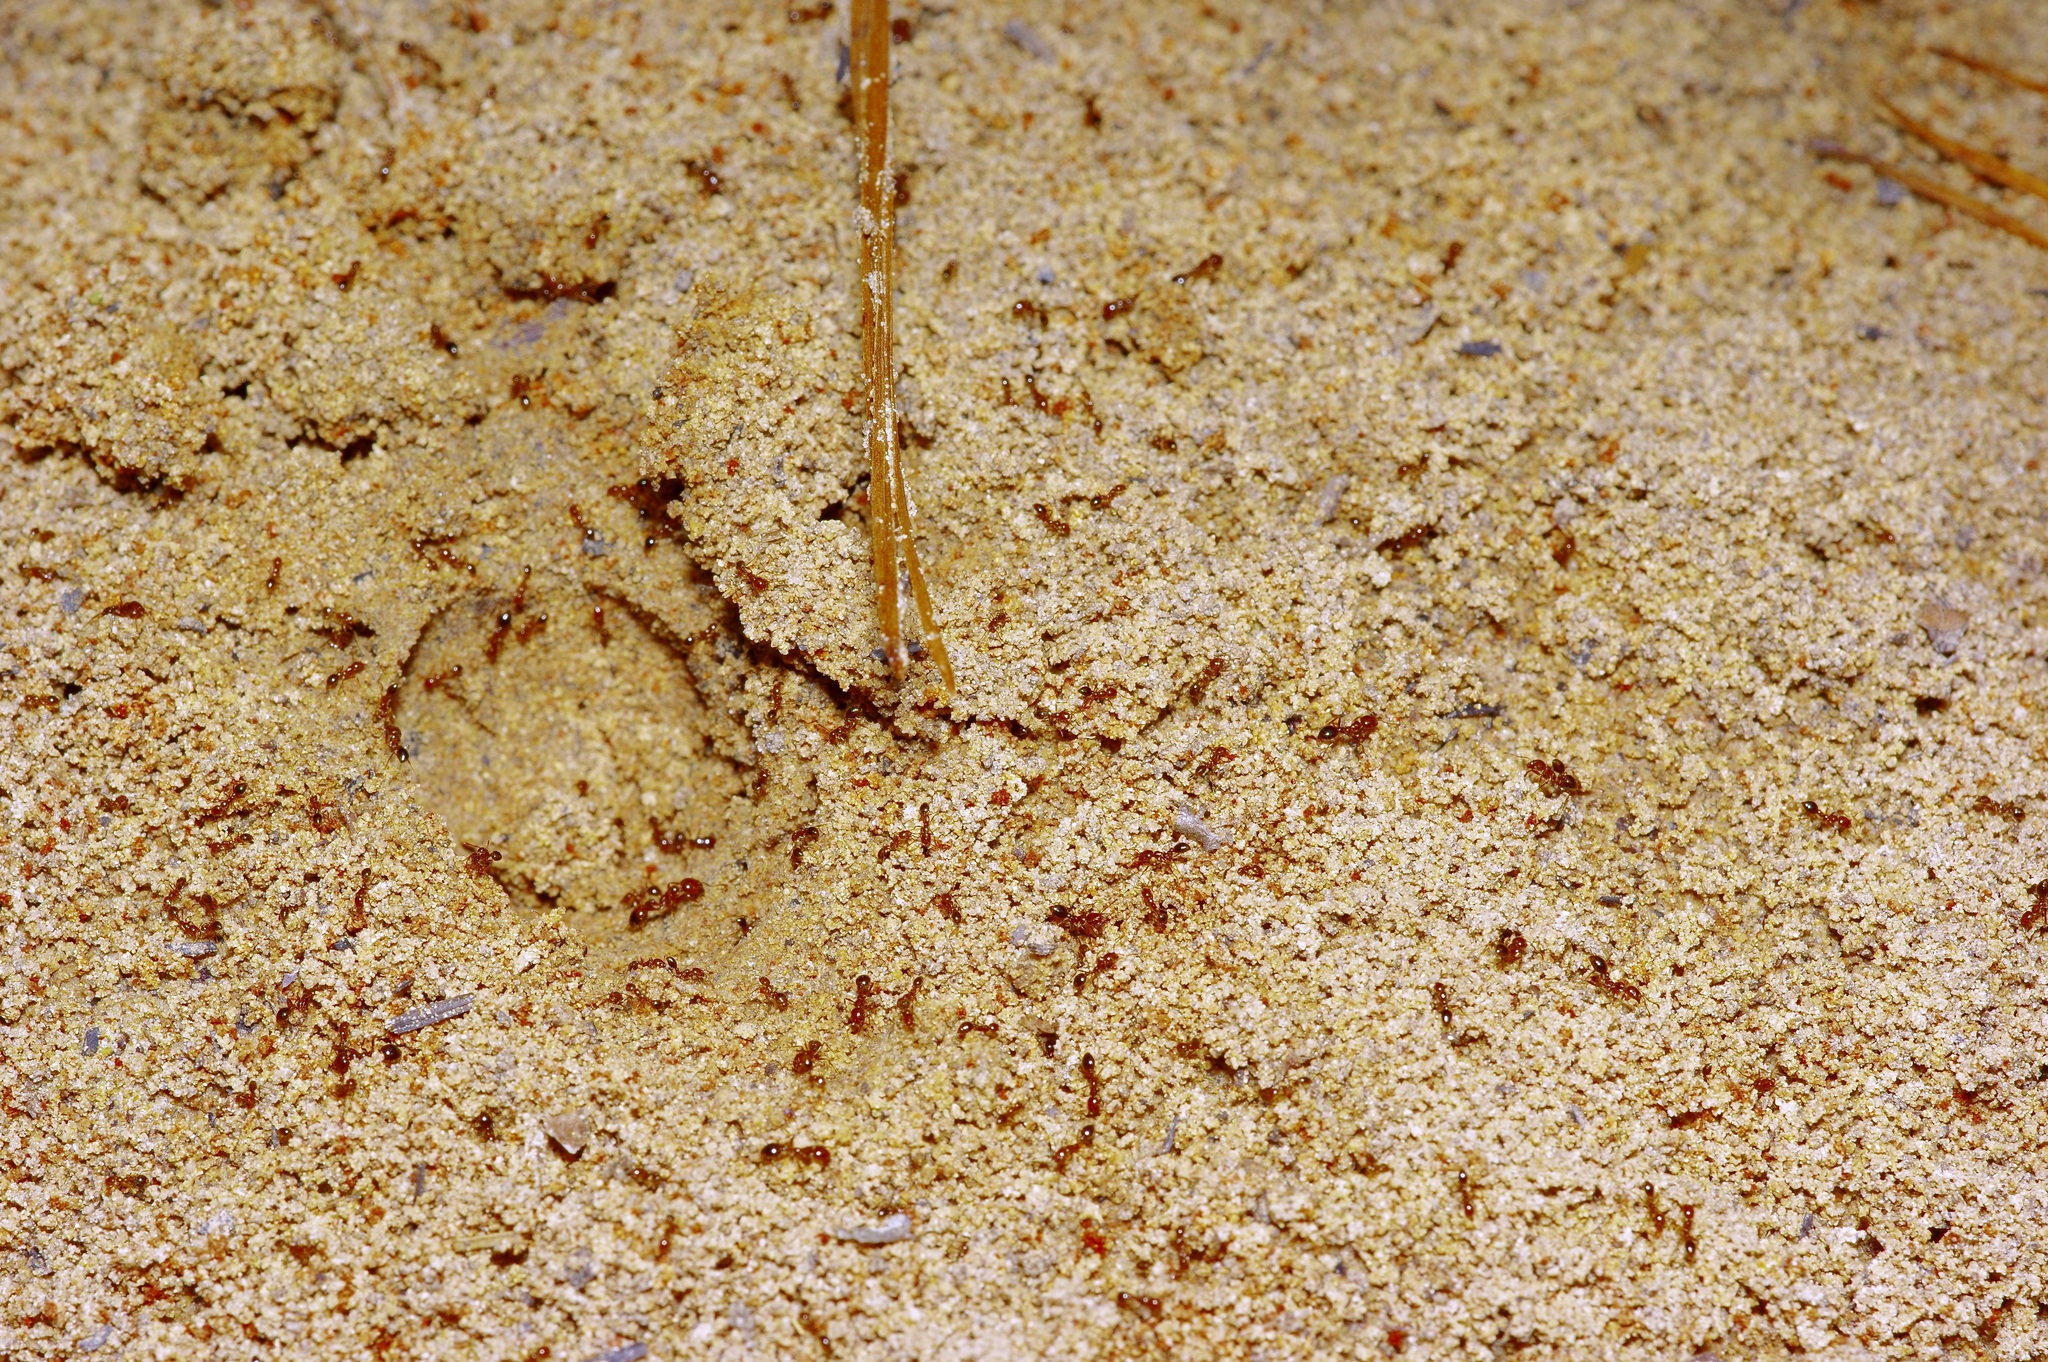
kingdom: Animalia
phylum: Arthropoda
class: Insecta
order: Hymenoptera
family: Formicidae
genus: Solenopsis
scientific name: Solenopsis invicta
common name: Red imported fire ant
